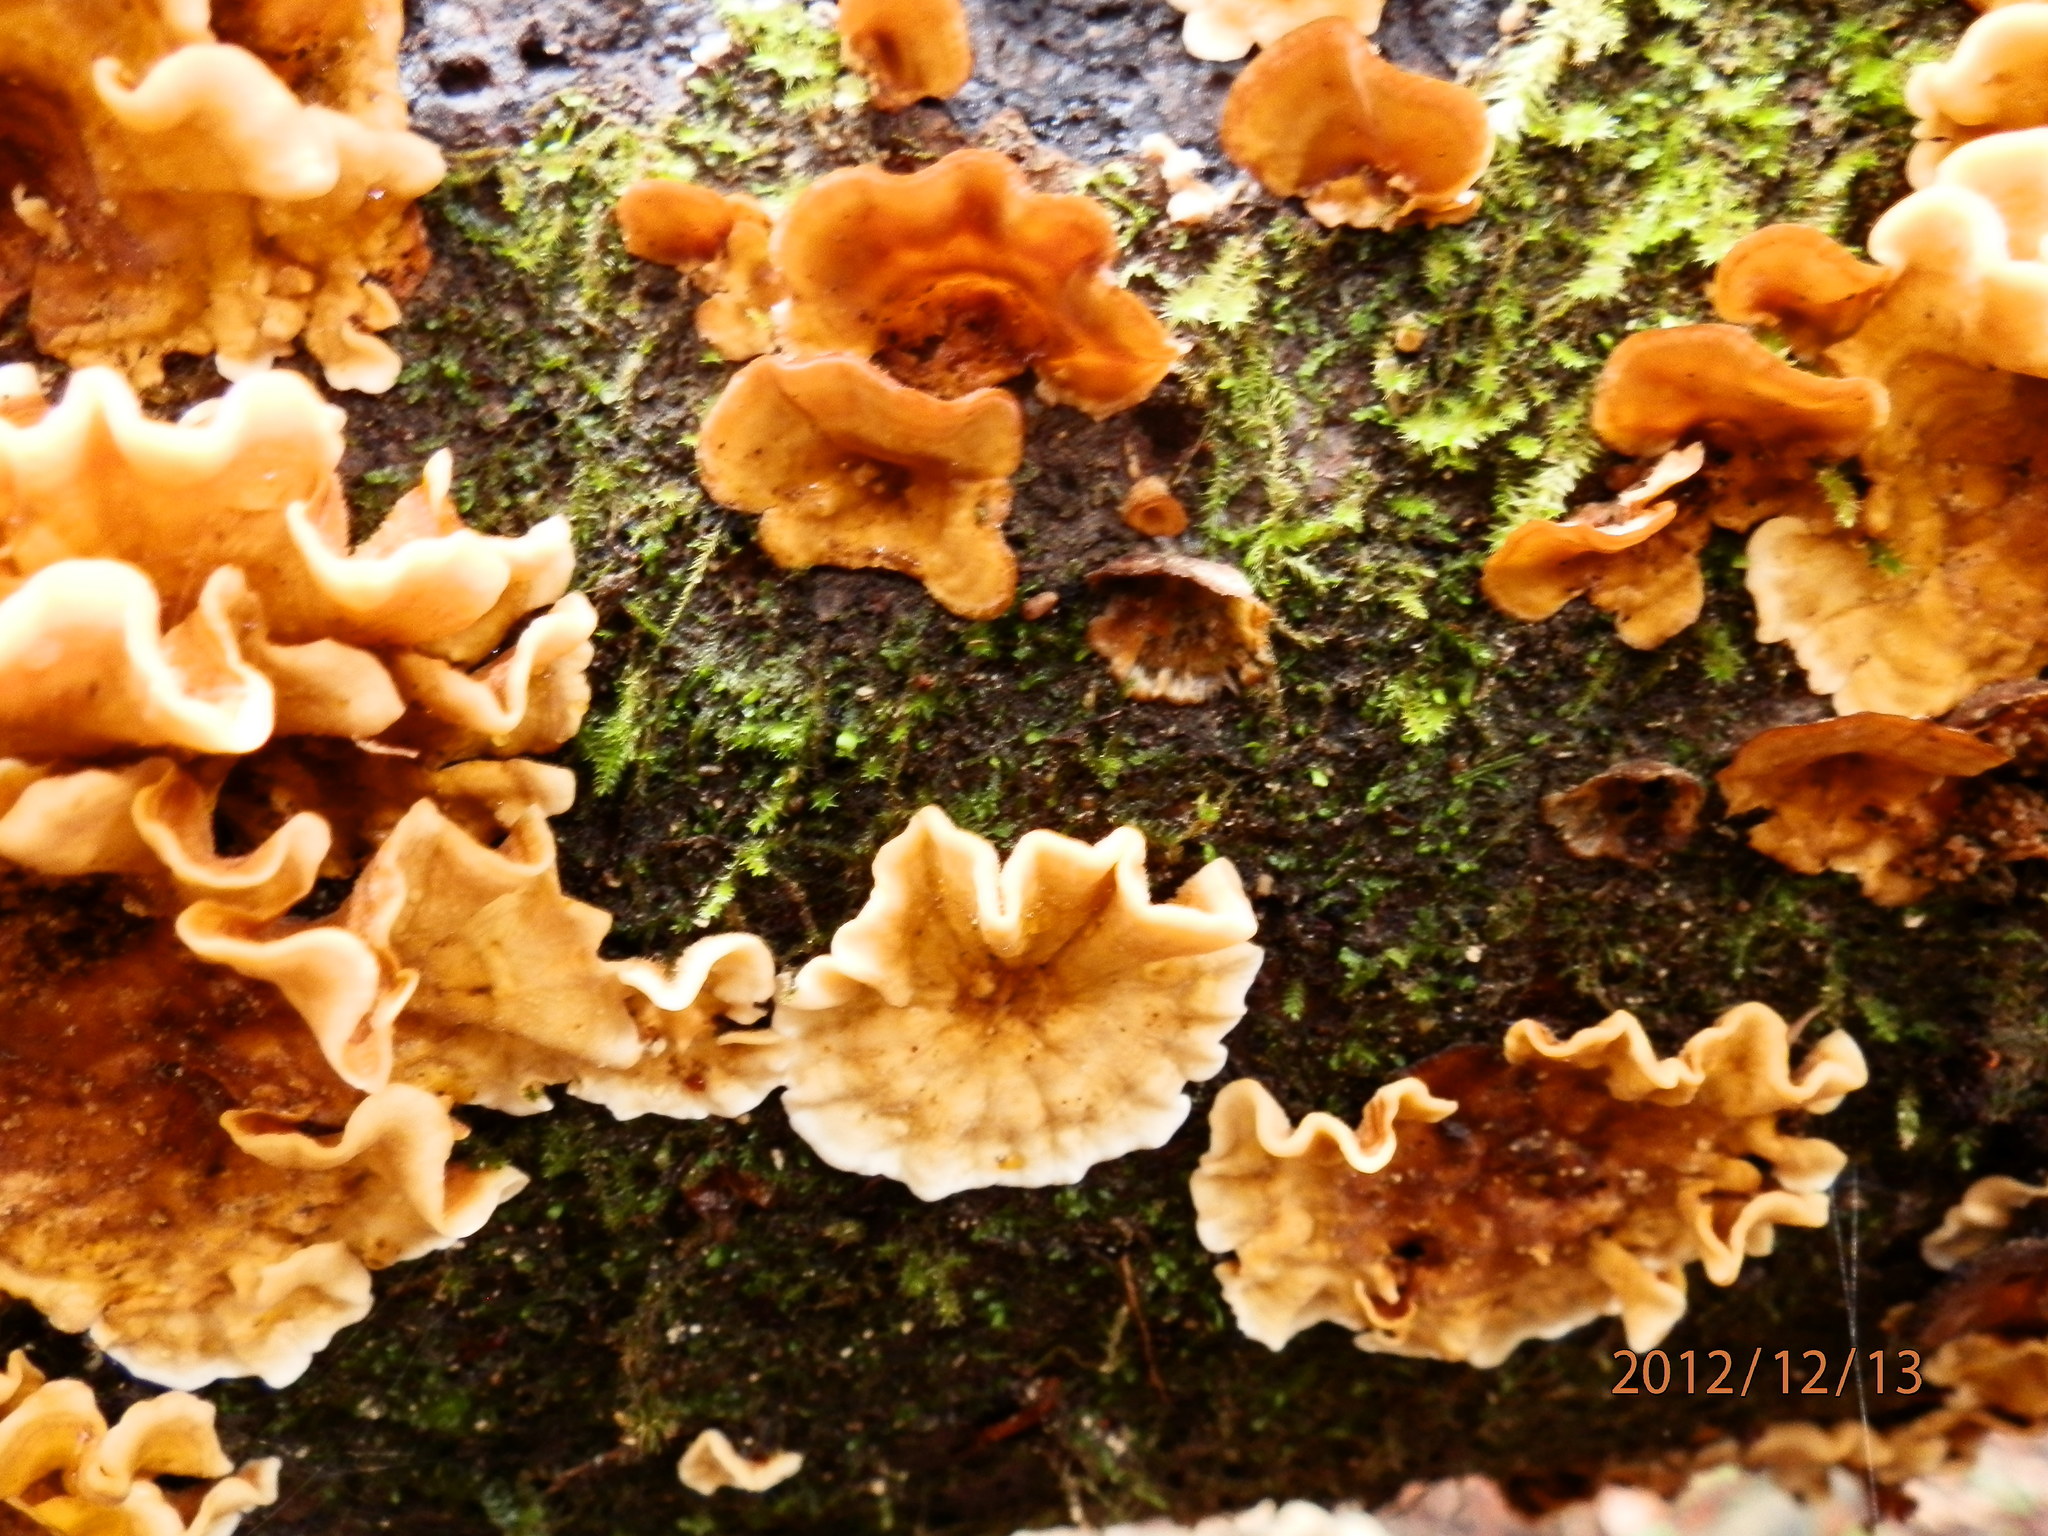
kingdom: Fungi
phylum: Basidiomycota
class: Agaricomycetes
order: Russulales
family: Stereaceae
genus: Stereum
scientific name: Stereum hirsutum
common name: Hairy curtain crust
